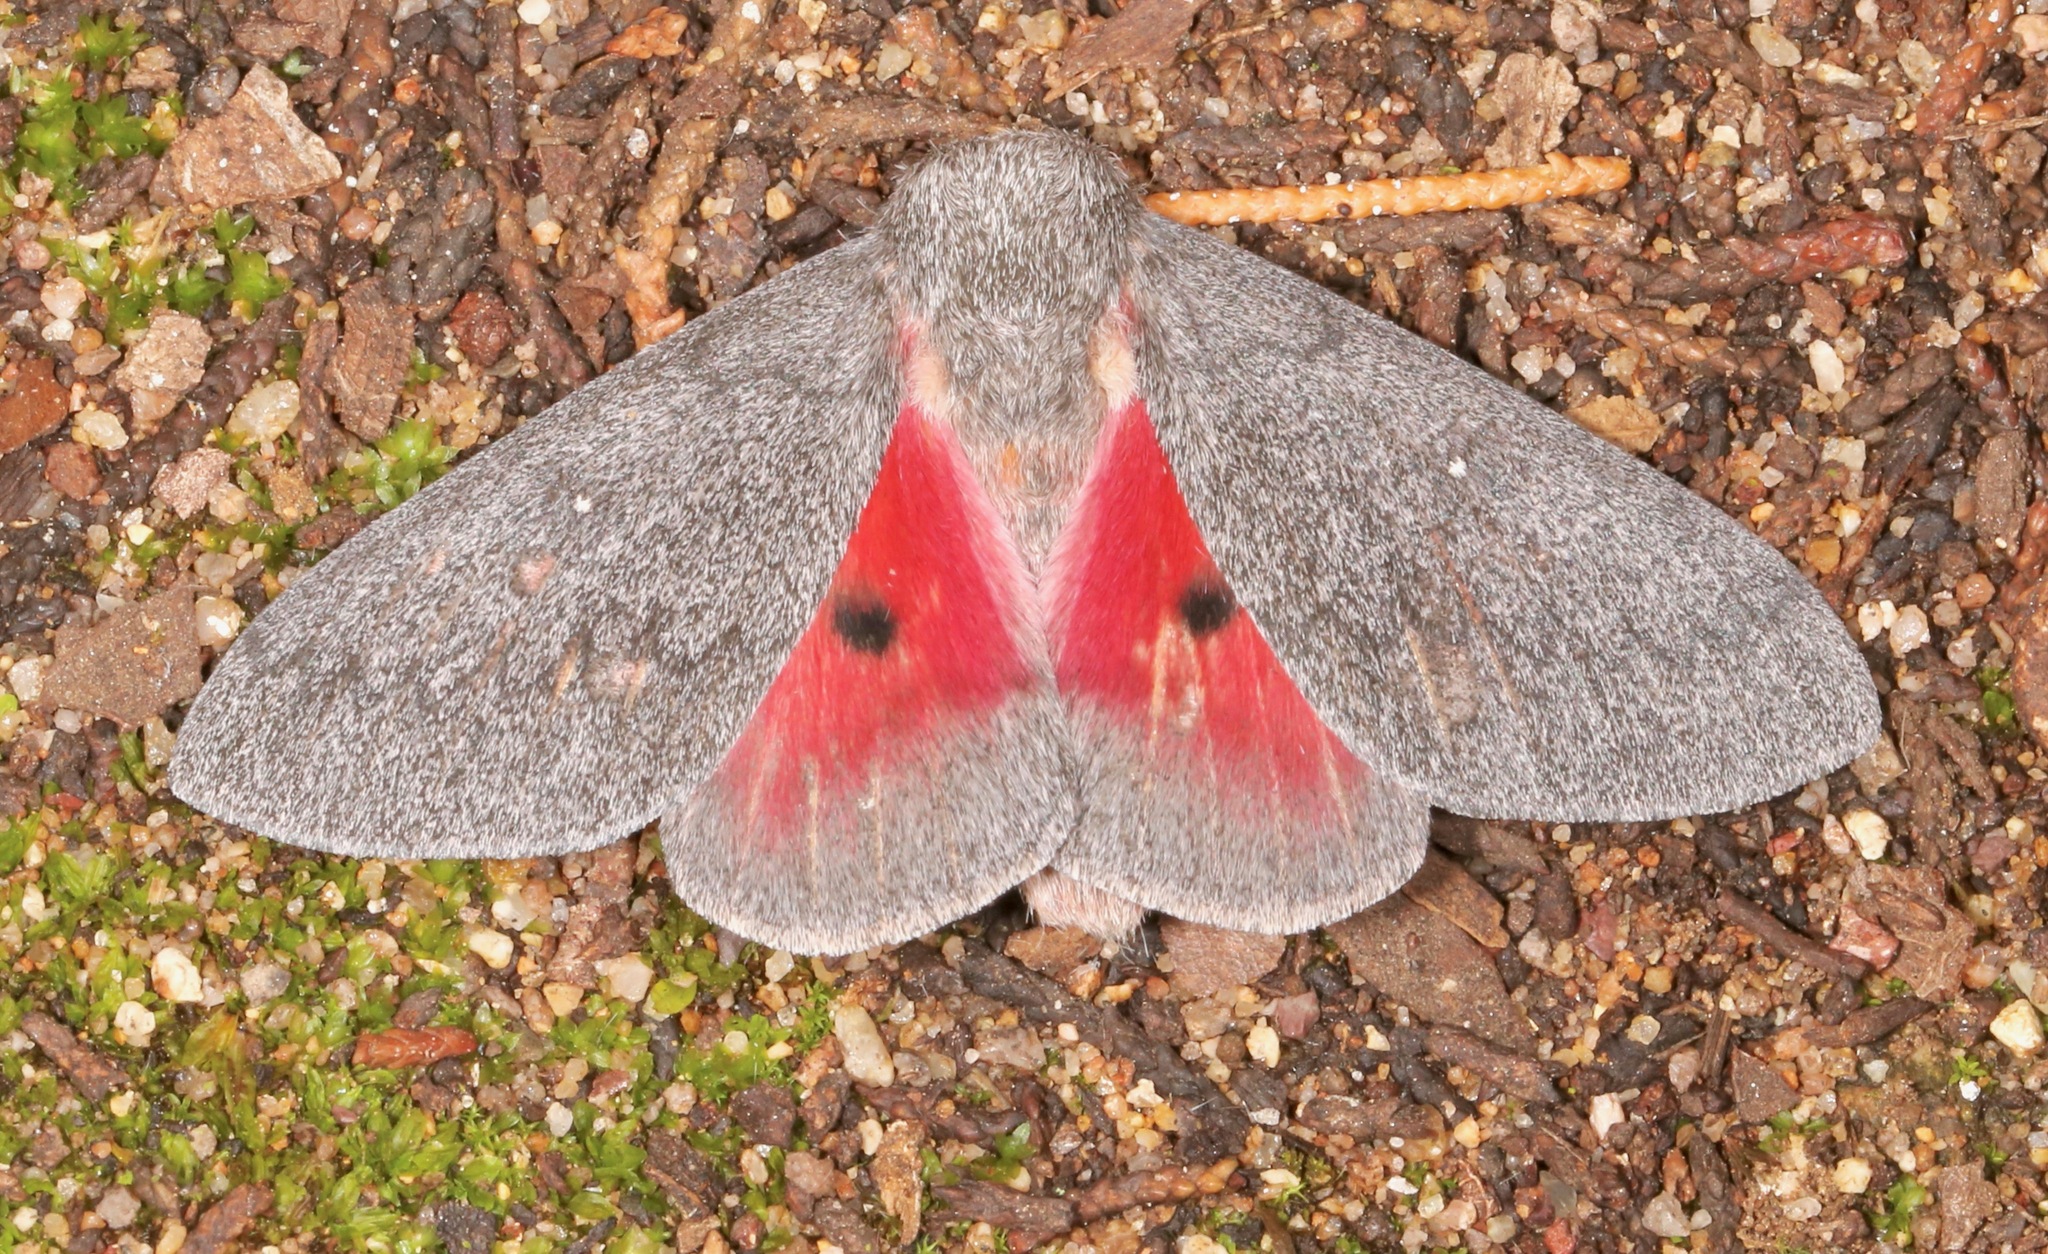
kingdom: Animalia
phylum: Arthropoda
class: Insecta
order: Lepidoptera
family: Saturniidae
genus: Syssphinx
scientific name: Syssphinx hubbardi
